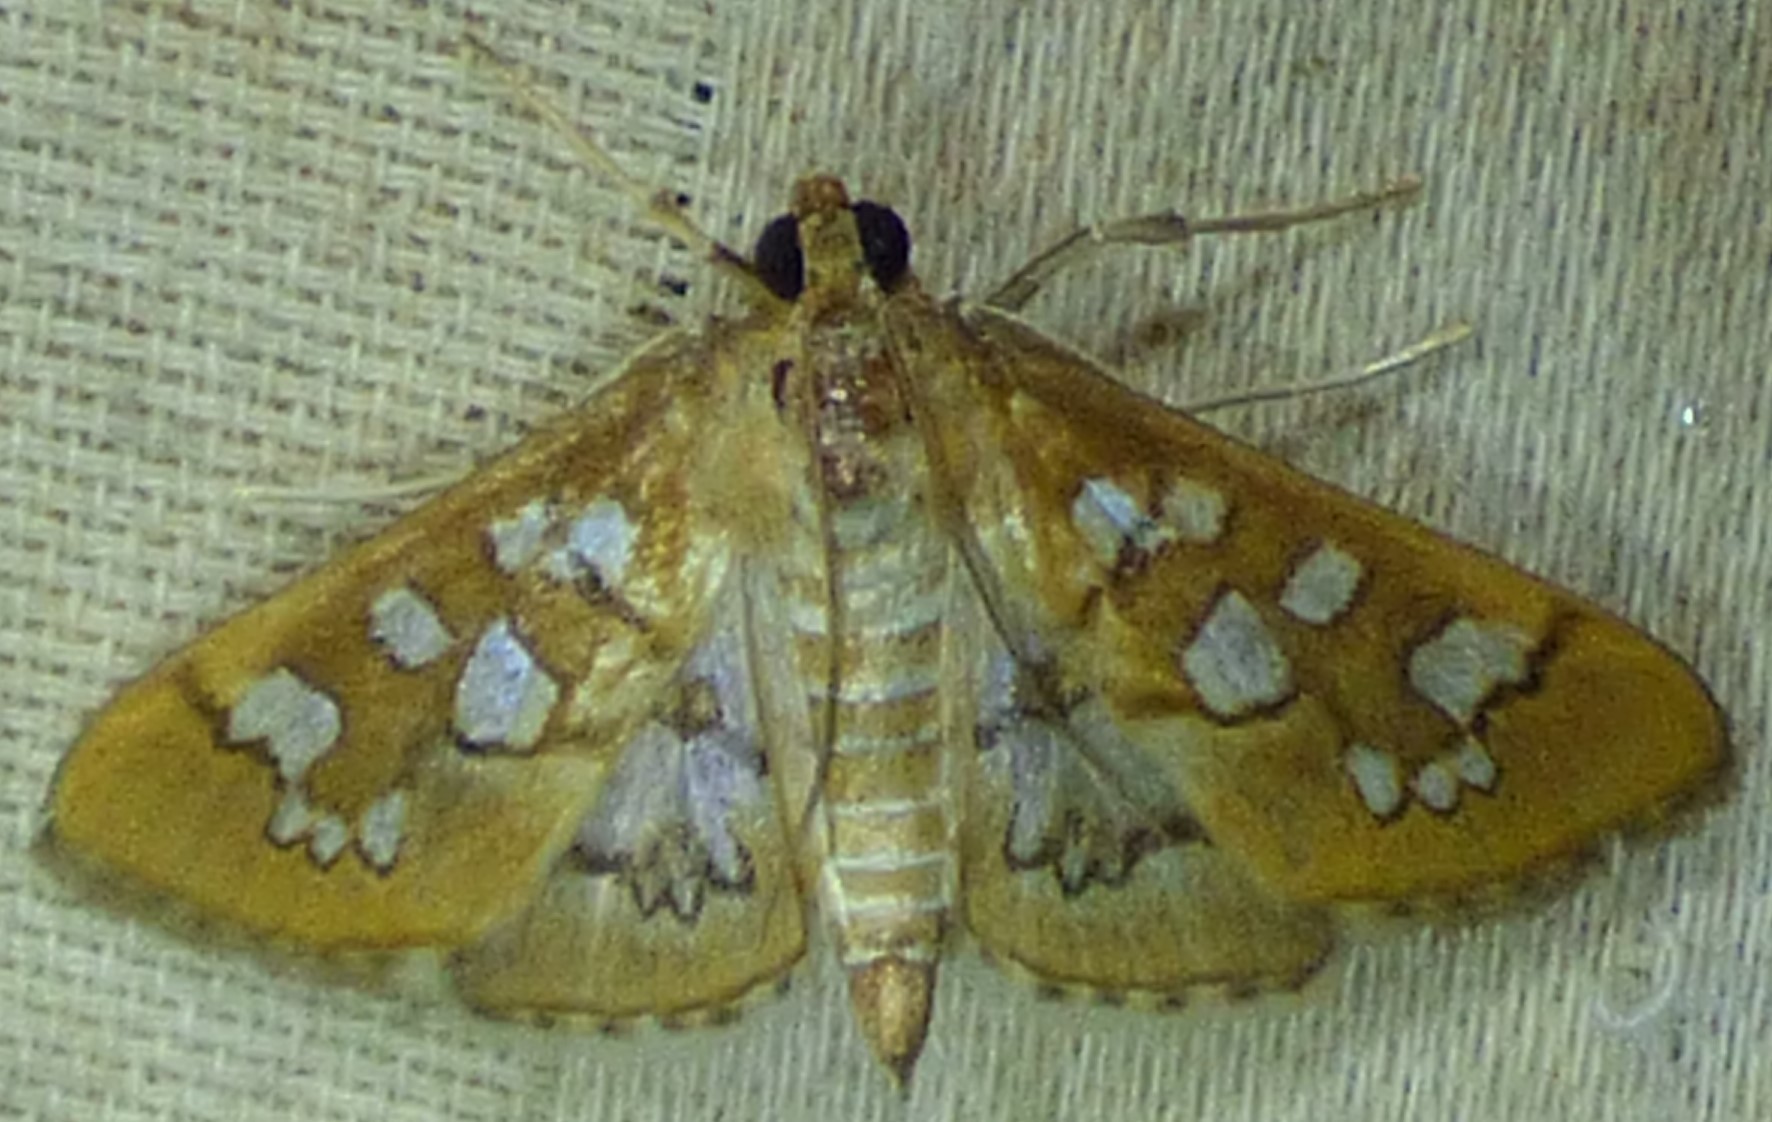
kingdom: Animalia
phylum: Arthropoda
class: Insecta
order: Lepidoptera
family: Crambidae
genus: Samea
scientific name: Samea baccatalis
